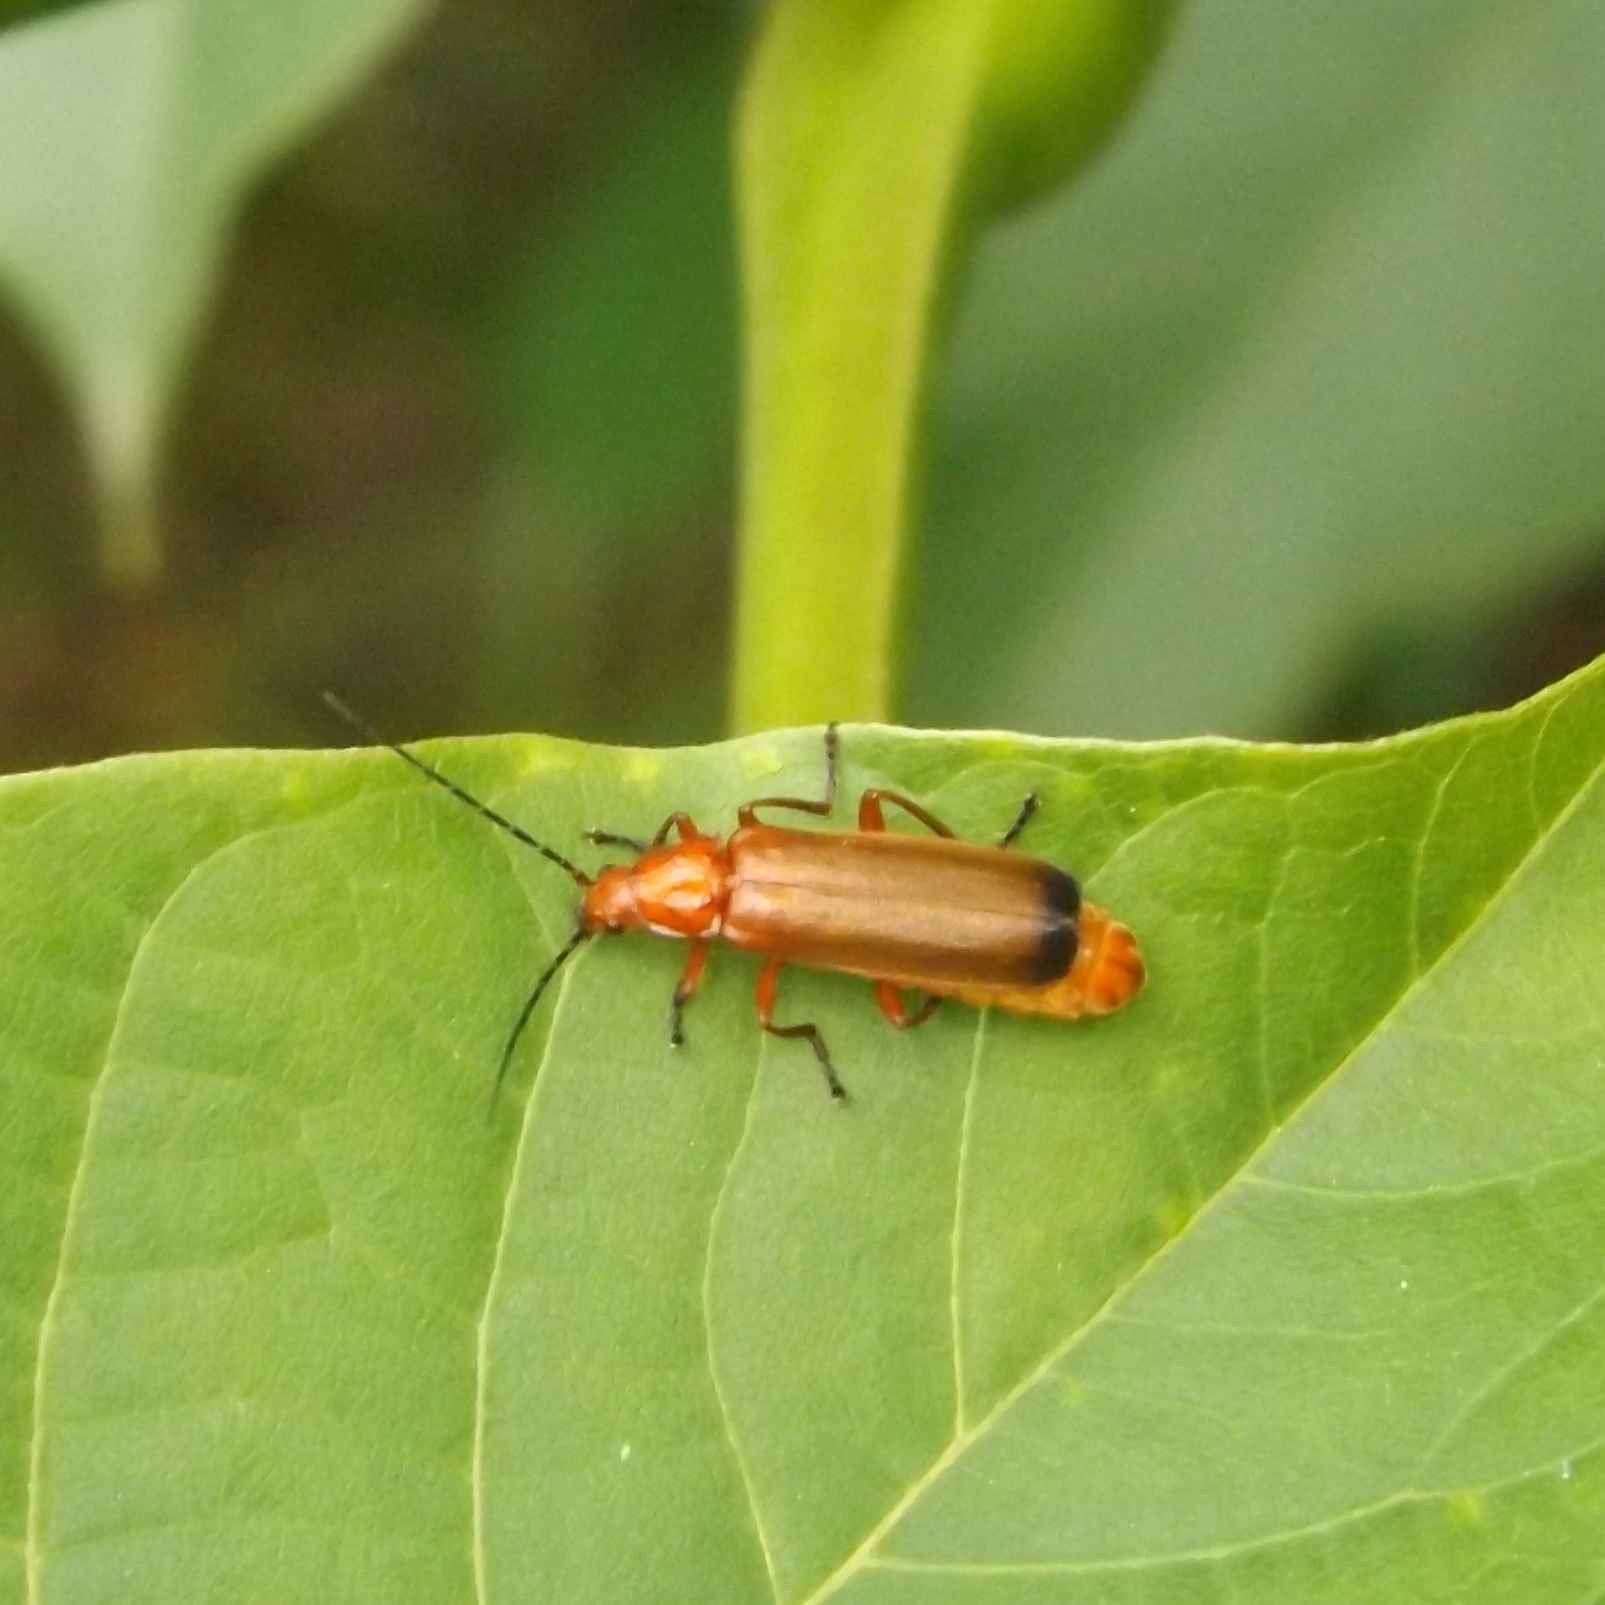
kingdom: Animalia
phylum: Arthropoda
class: Insecta
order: Coleoptera
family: Cantharidae
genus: Rhagonycha
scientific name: Rhagonycha fulva
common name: Common red soldier beetle
